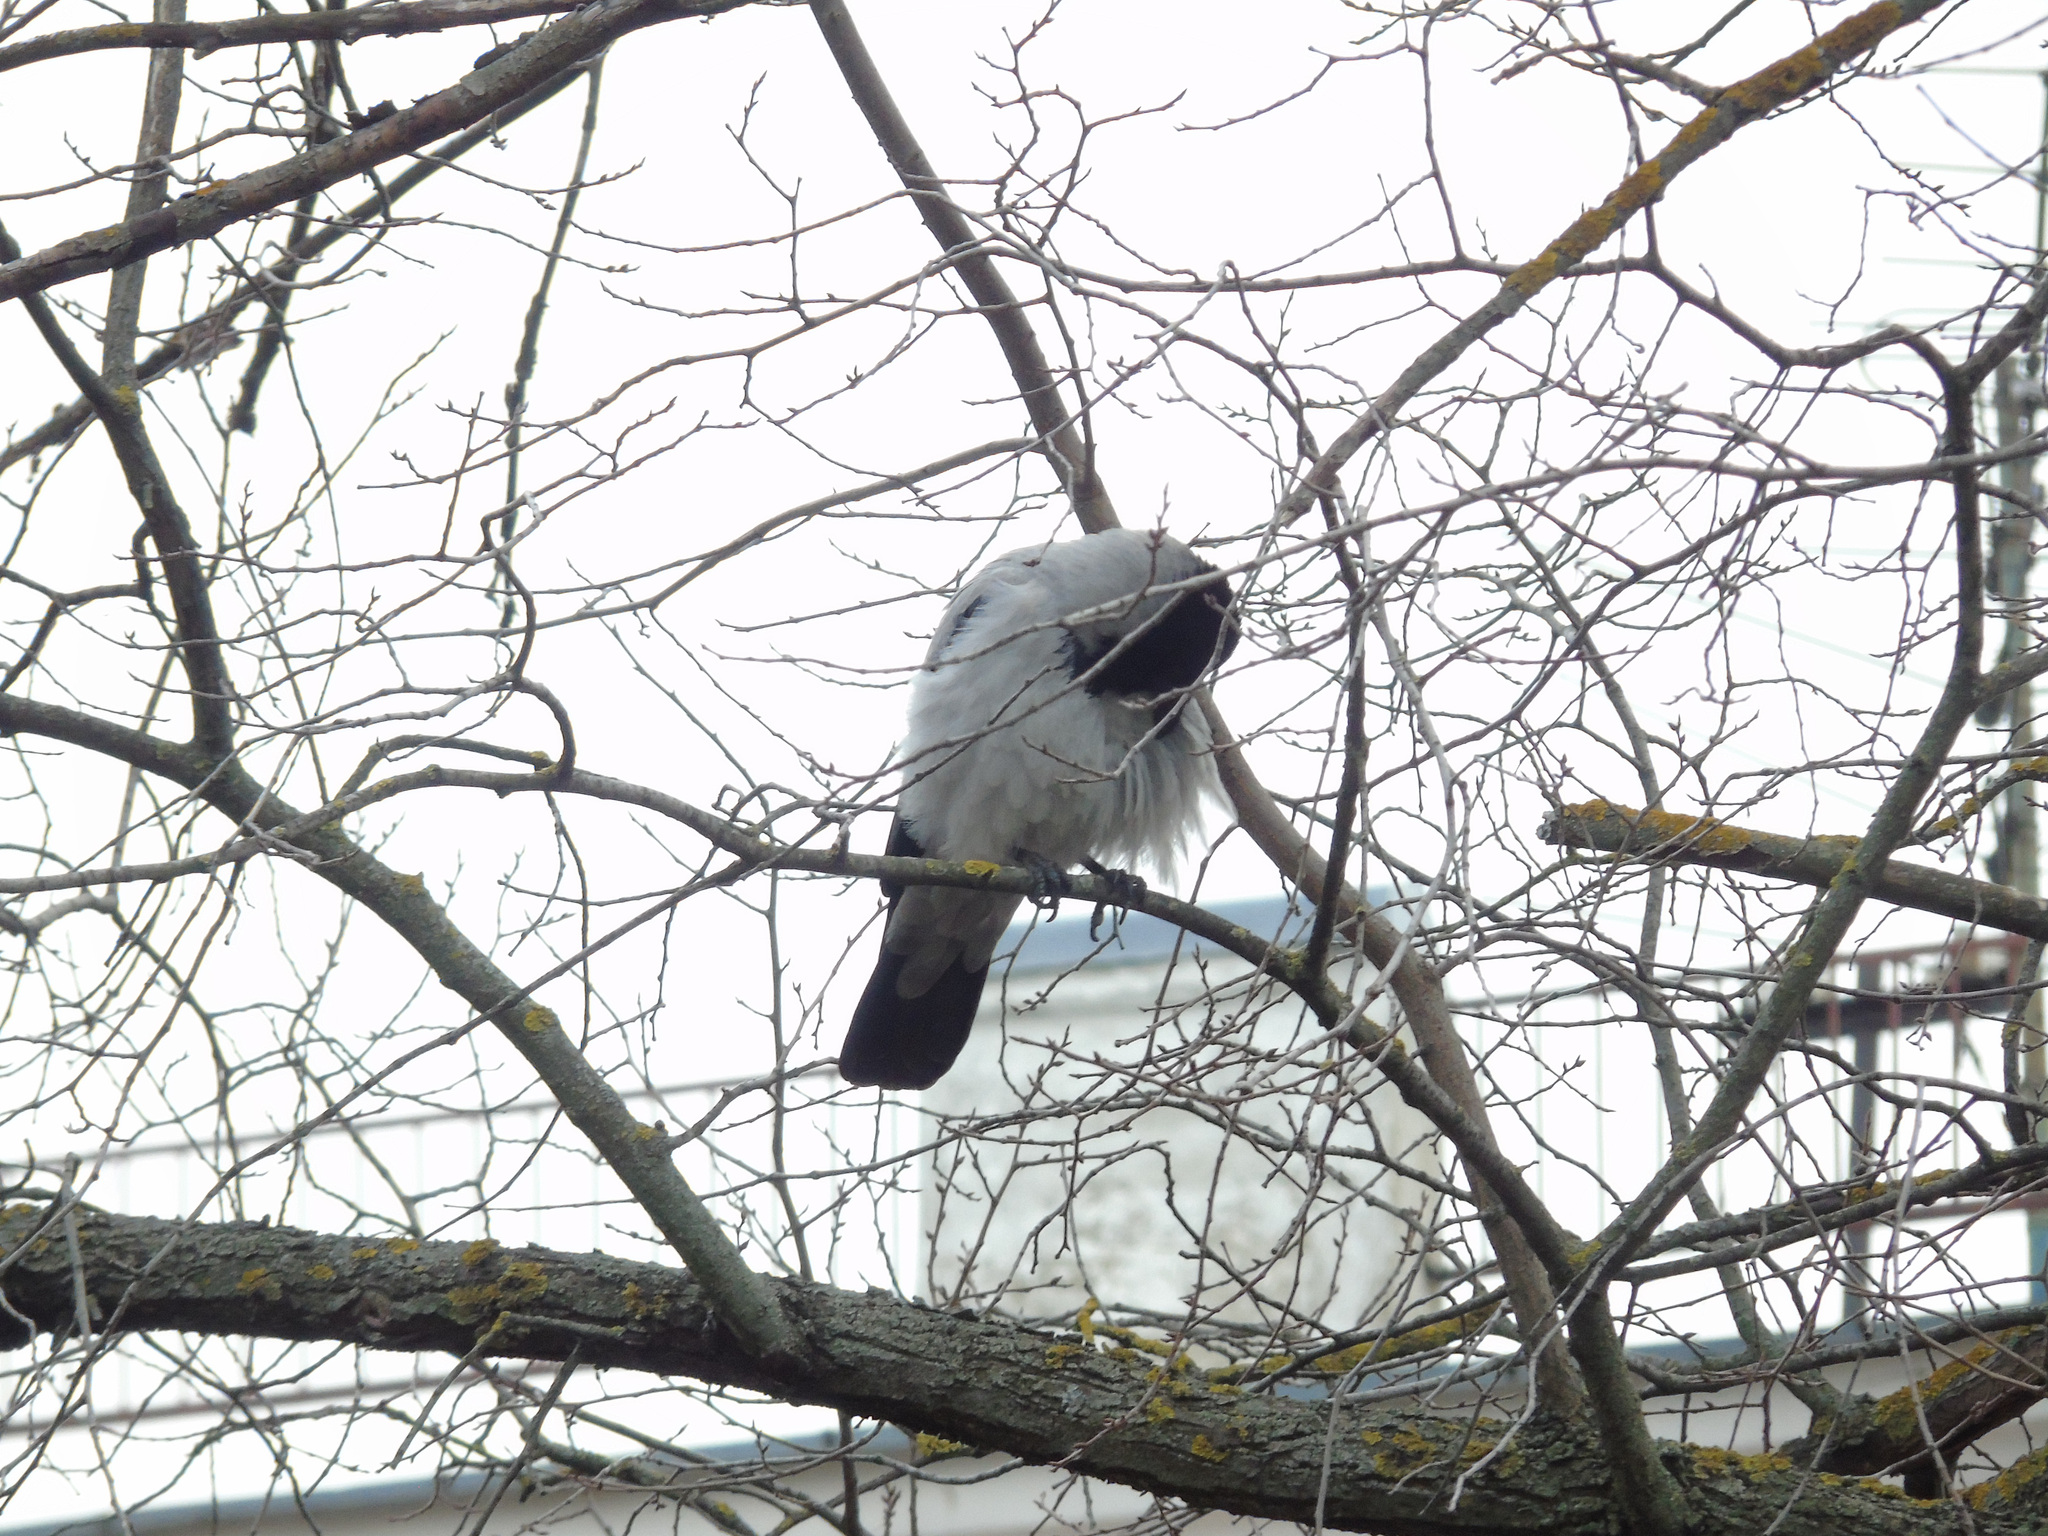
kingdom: Animalia
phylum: Chordata
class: Aves
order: Passeriformes
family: Corvidae
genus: Corvus
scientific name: Corvus cornix
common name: Hooded crow
